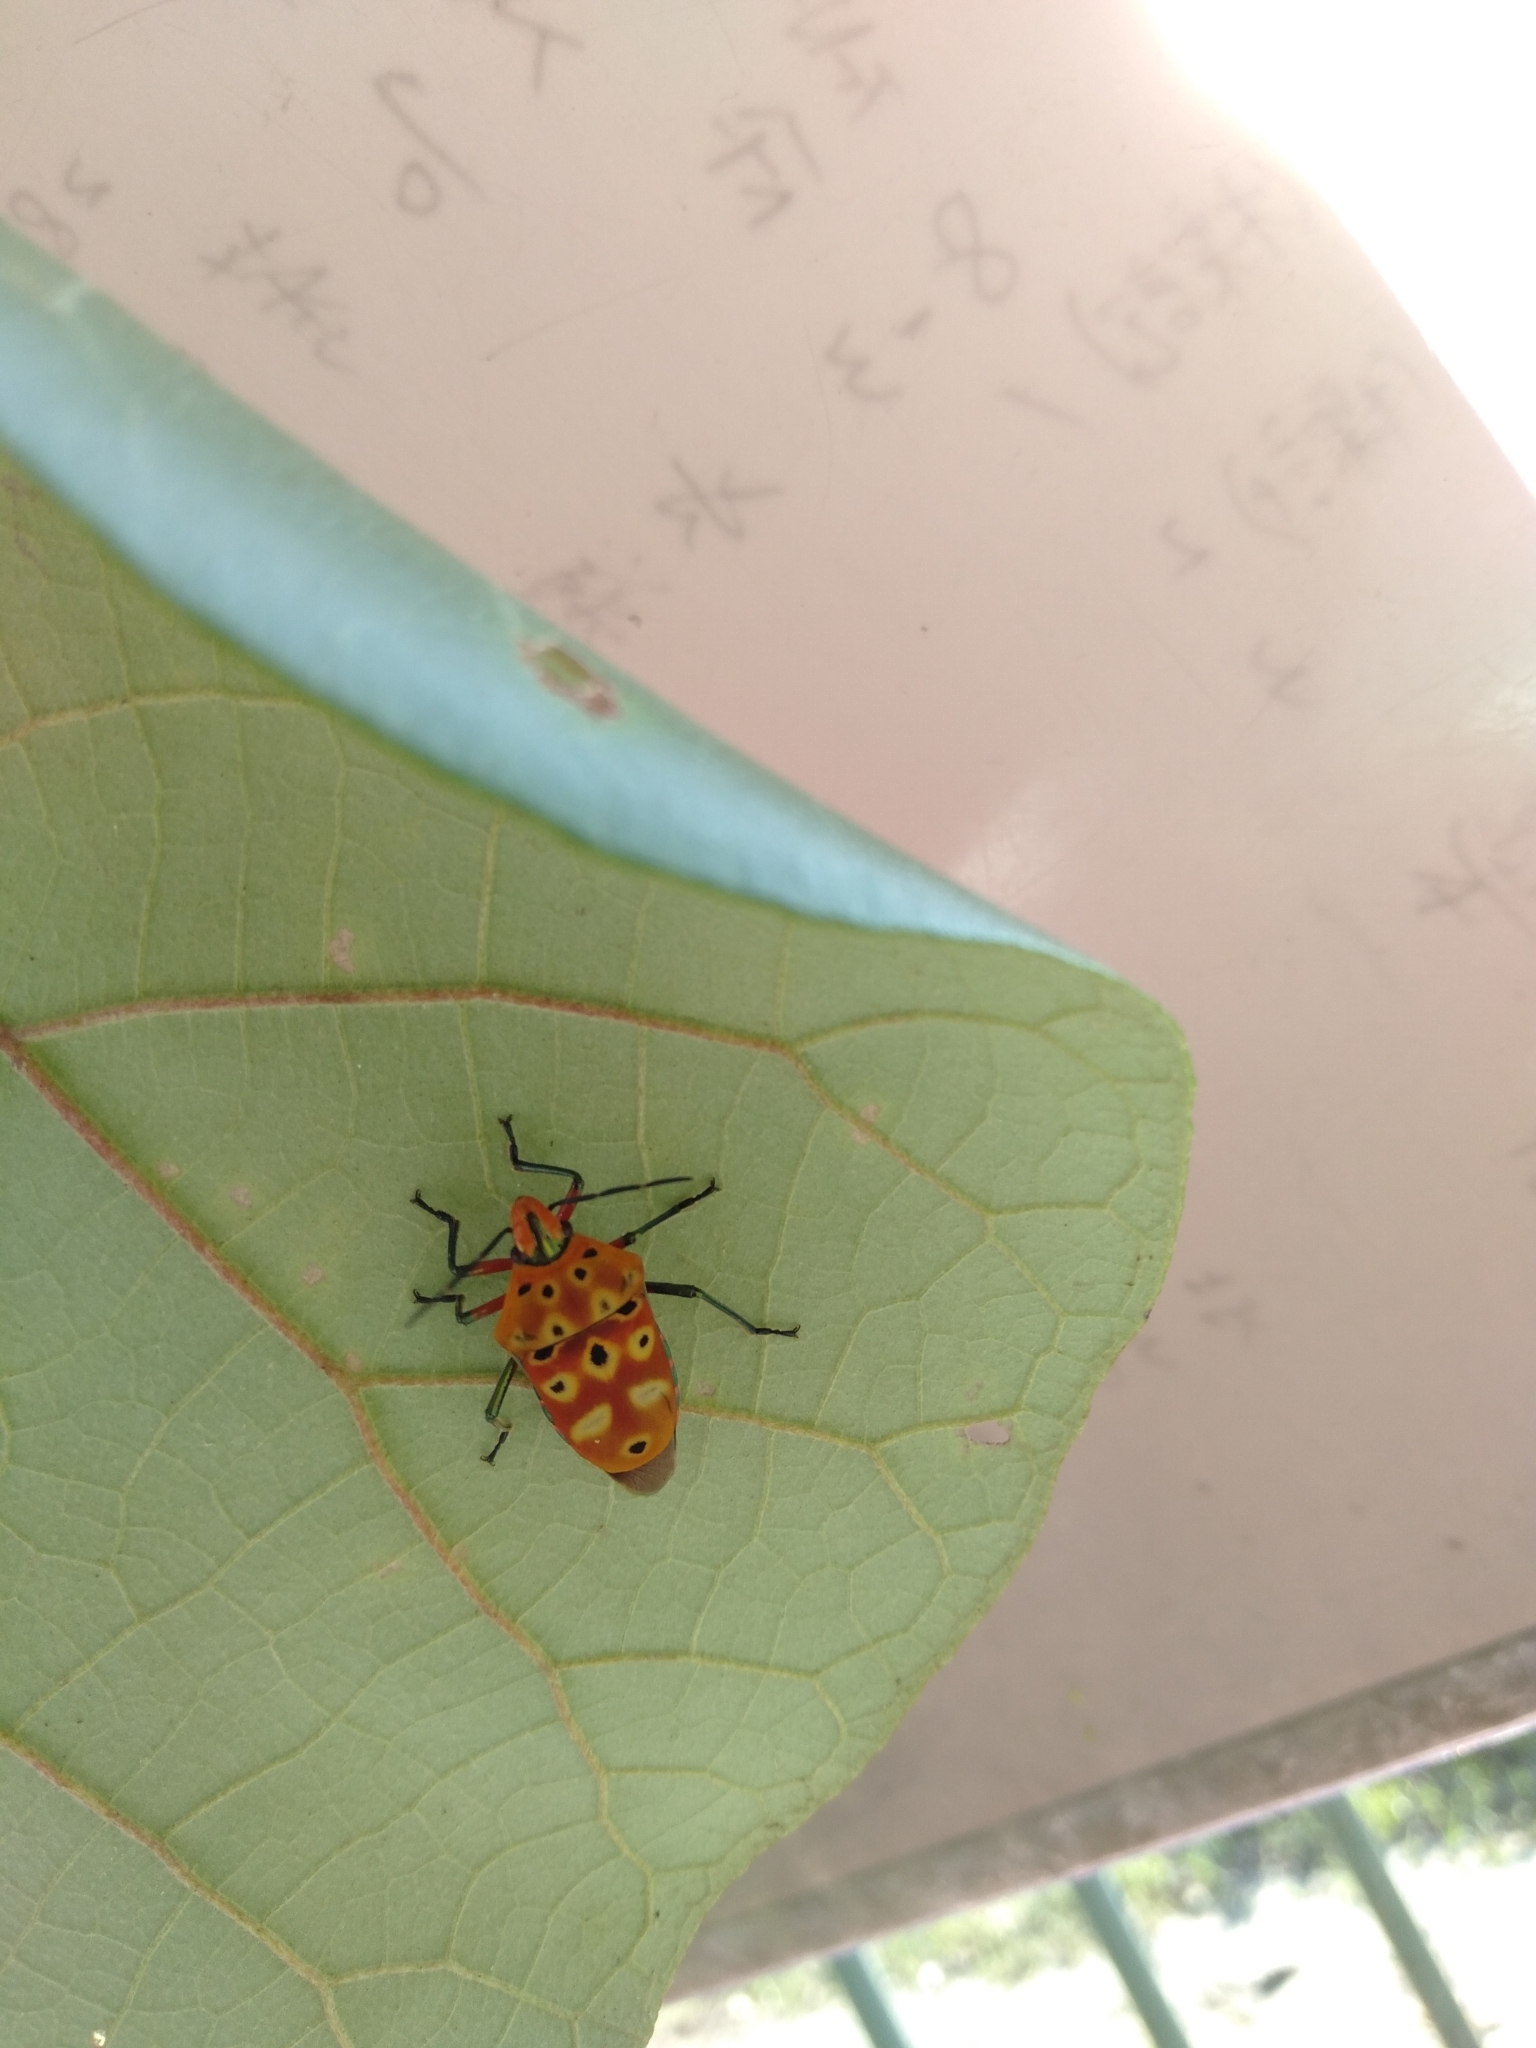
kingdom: Animalia
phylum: Arthropoda
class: Insecta
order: Hemiptera
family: Scutelleridae
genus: Cantao
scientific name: Cantao ocellatus
